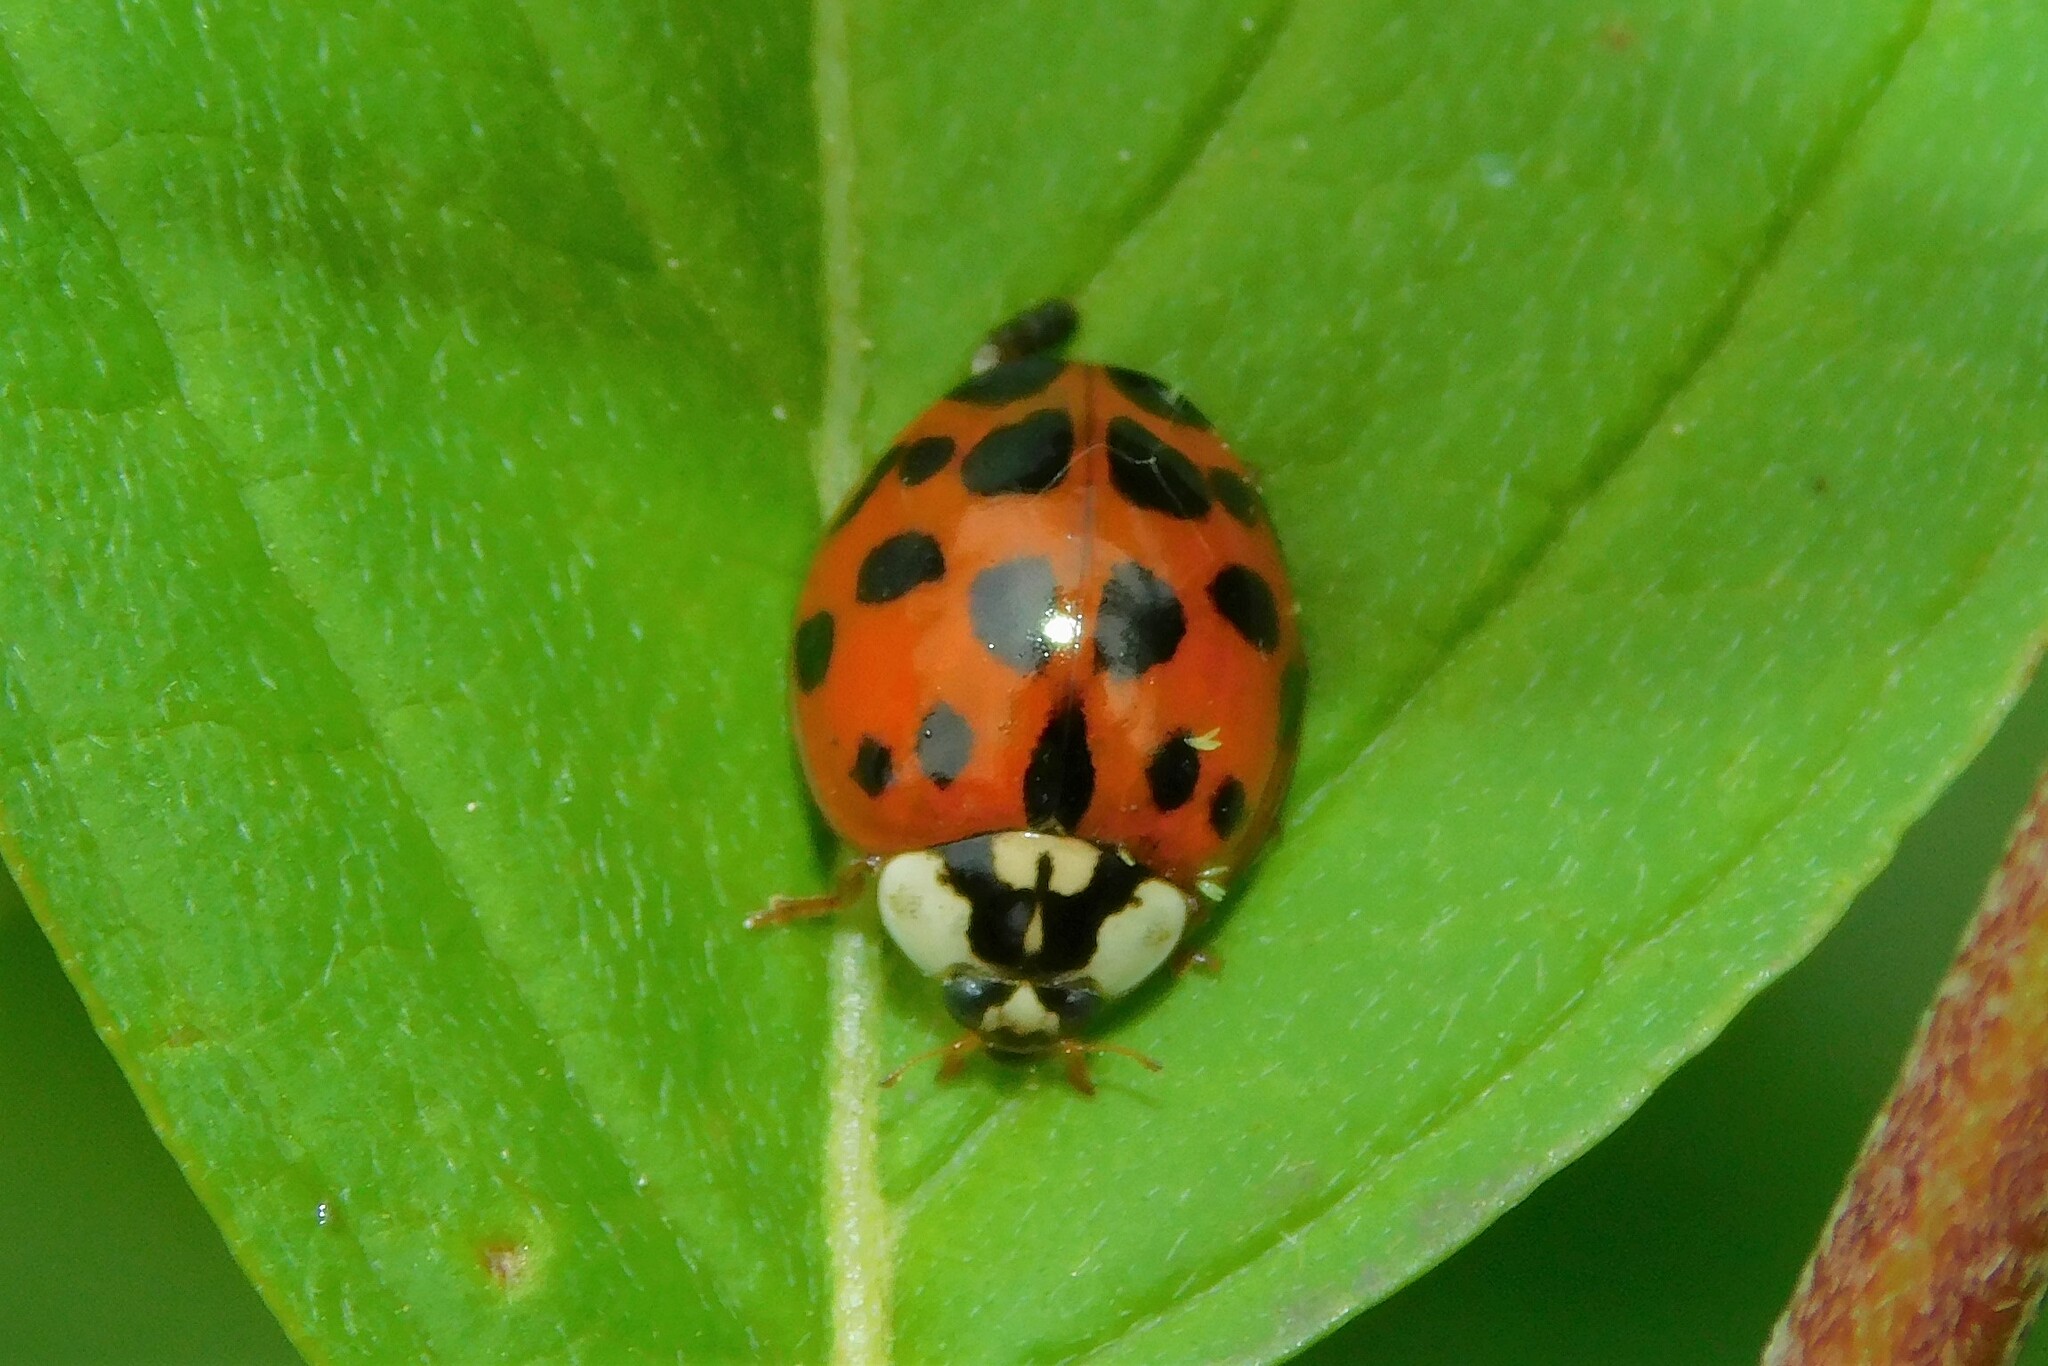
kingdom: Animalia
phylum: Arthropoda
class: Insecta
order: Coleoptera
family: Coccinellidae
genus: Harmonia
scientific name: Harmonia axyridis
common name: Harlequin ladybird
